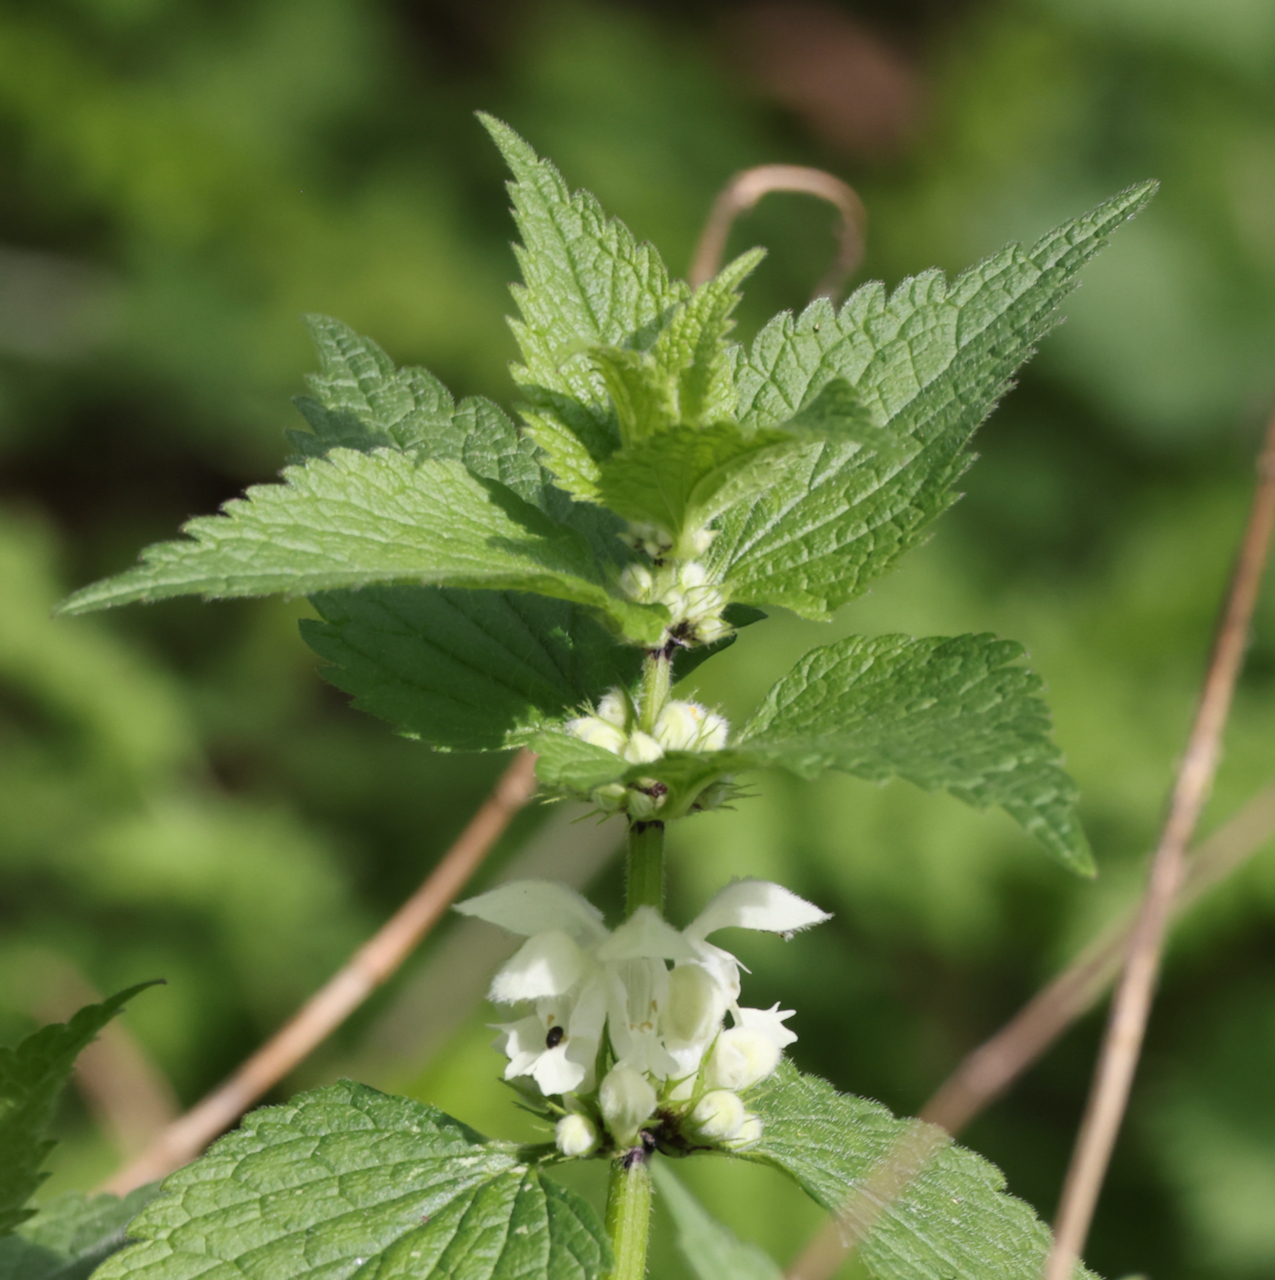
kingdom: Plantae
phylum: Tracheophyta
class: Magnoliopsida
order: Lamiales
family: Lamiaceae
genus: Lamium
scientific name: Lamium album
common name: White dead-nettle
